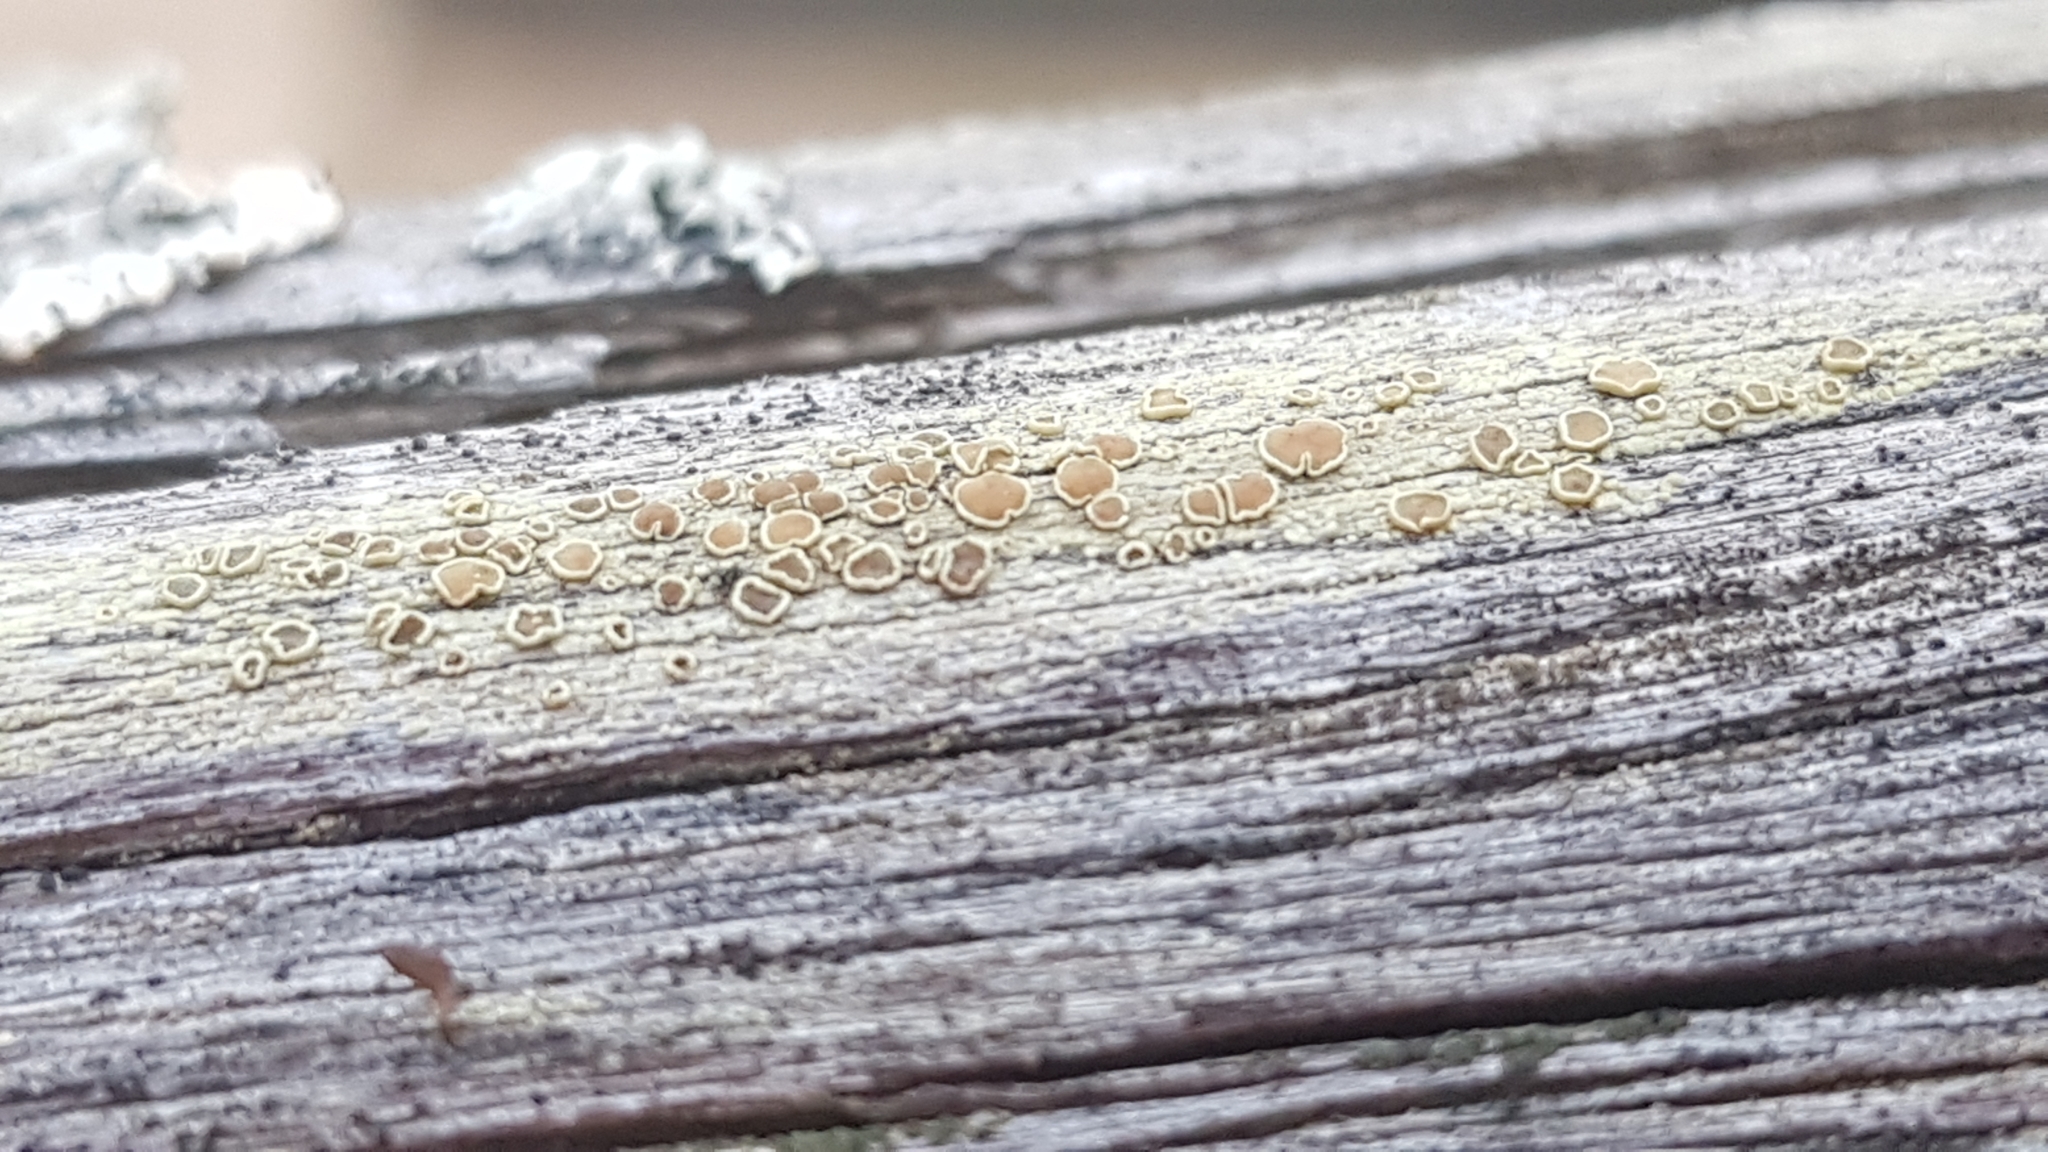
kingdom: Fungi
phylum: Ascomycota
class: Lecanoromycetes
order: Lecanorales
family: Lecanoraceae
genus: Straminella
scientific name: Straminella varia
